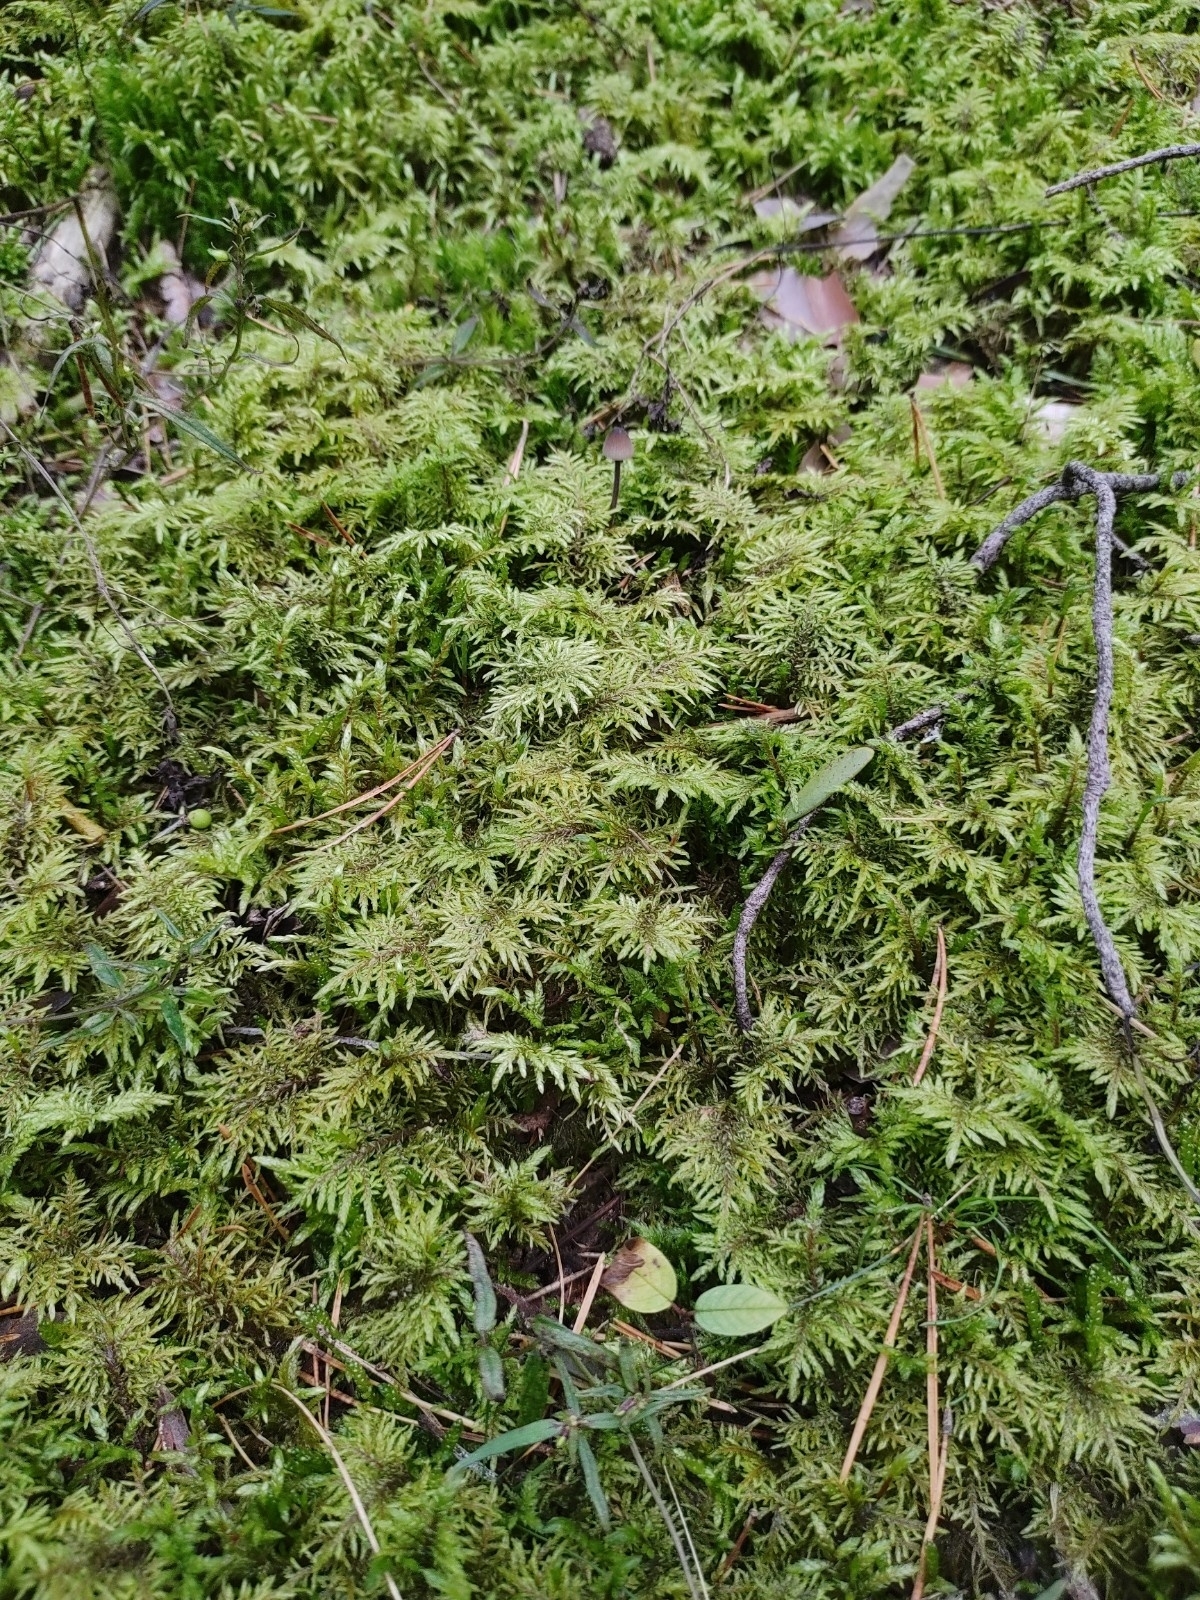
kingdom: Plantae
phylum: Bryophyta
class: Bryopsida
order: Hypnales
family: Hylocomiaceae
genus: Hylocomium
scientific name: Hylocomium splendens
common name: Stairstep moss
